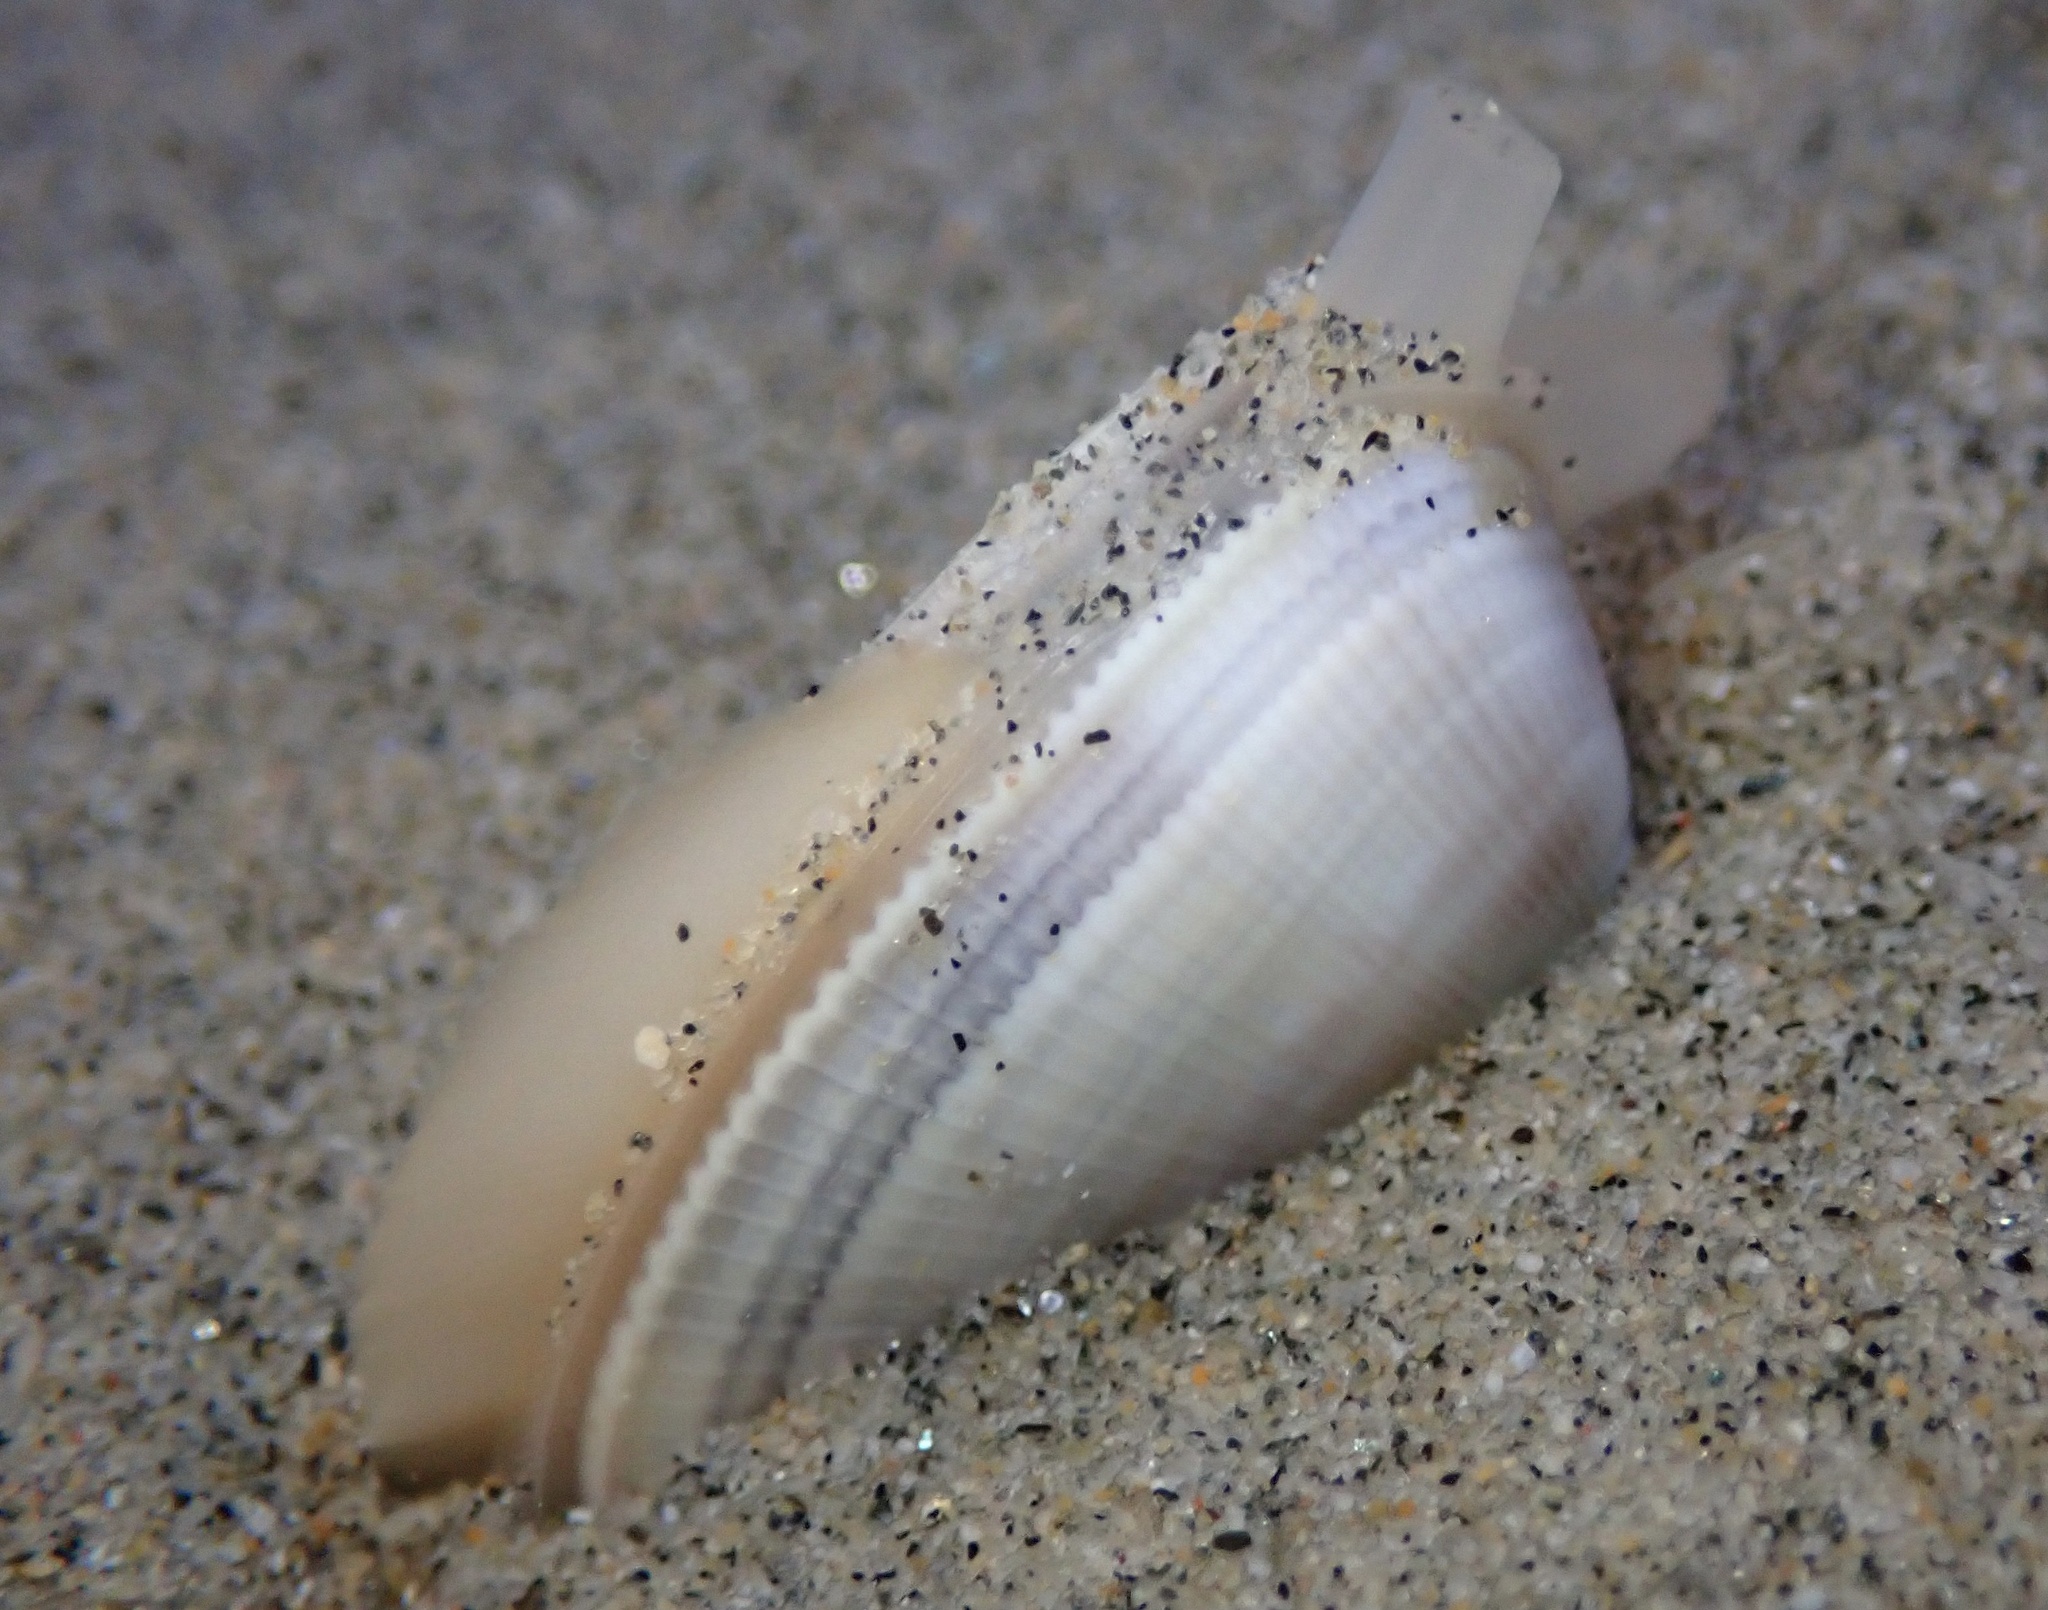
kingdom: Animalia
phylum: Mollusca
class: Bivalvia
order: Cardiida
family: Donacidae
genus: Donax
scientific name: Donax gouldii
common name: Gould beanclam
